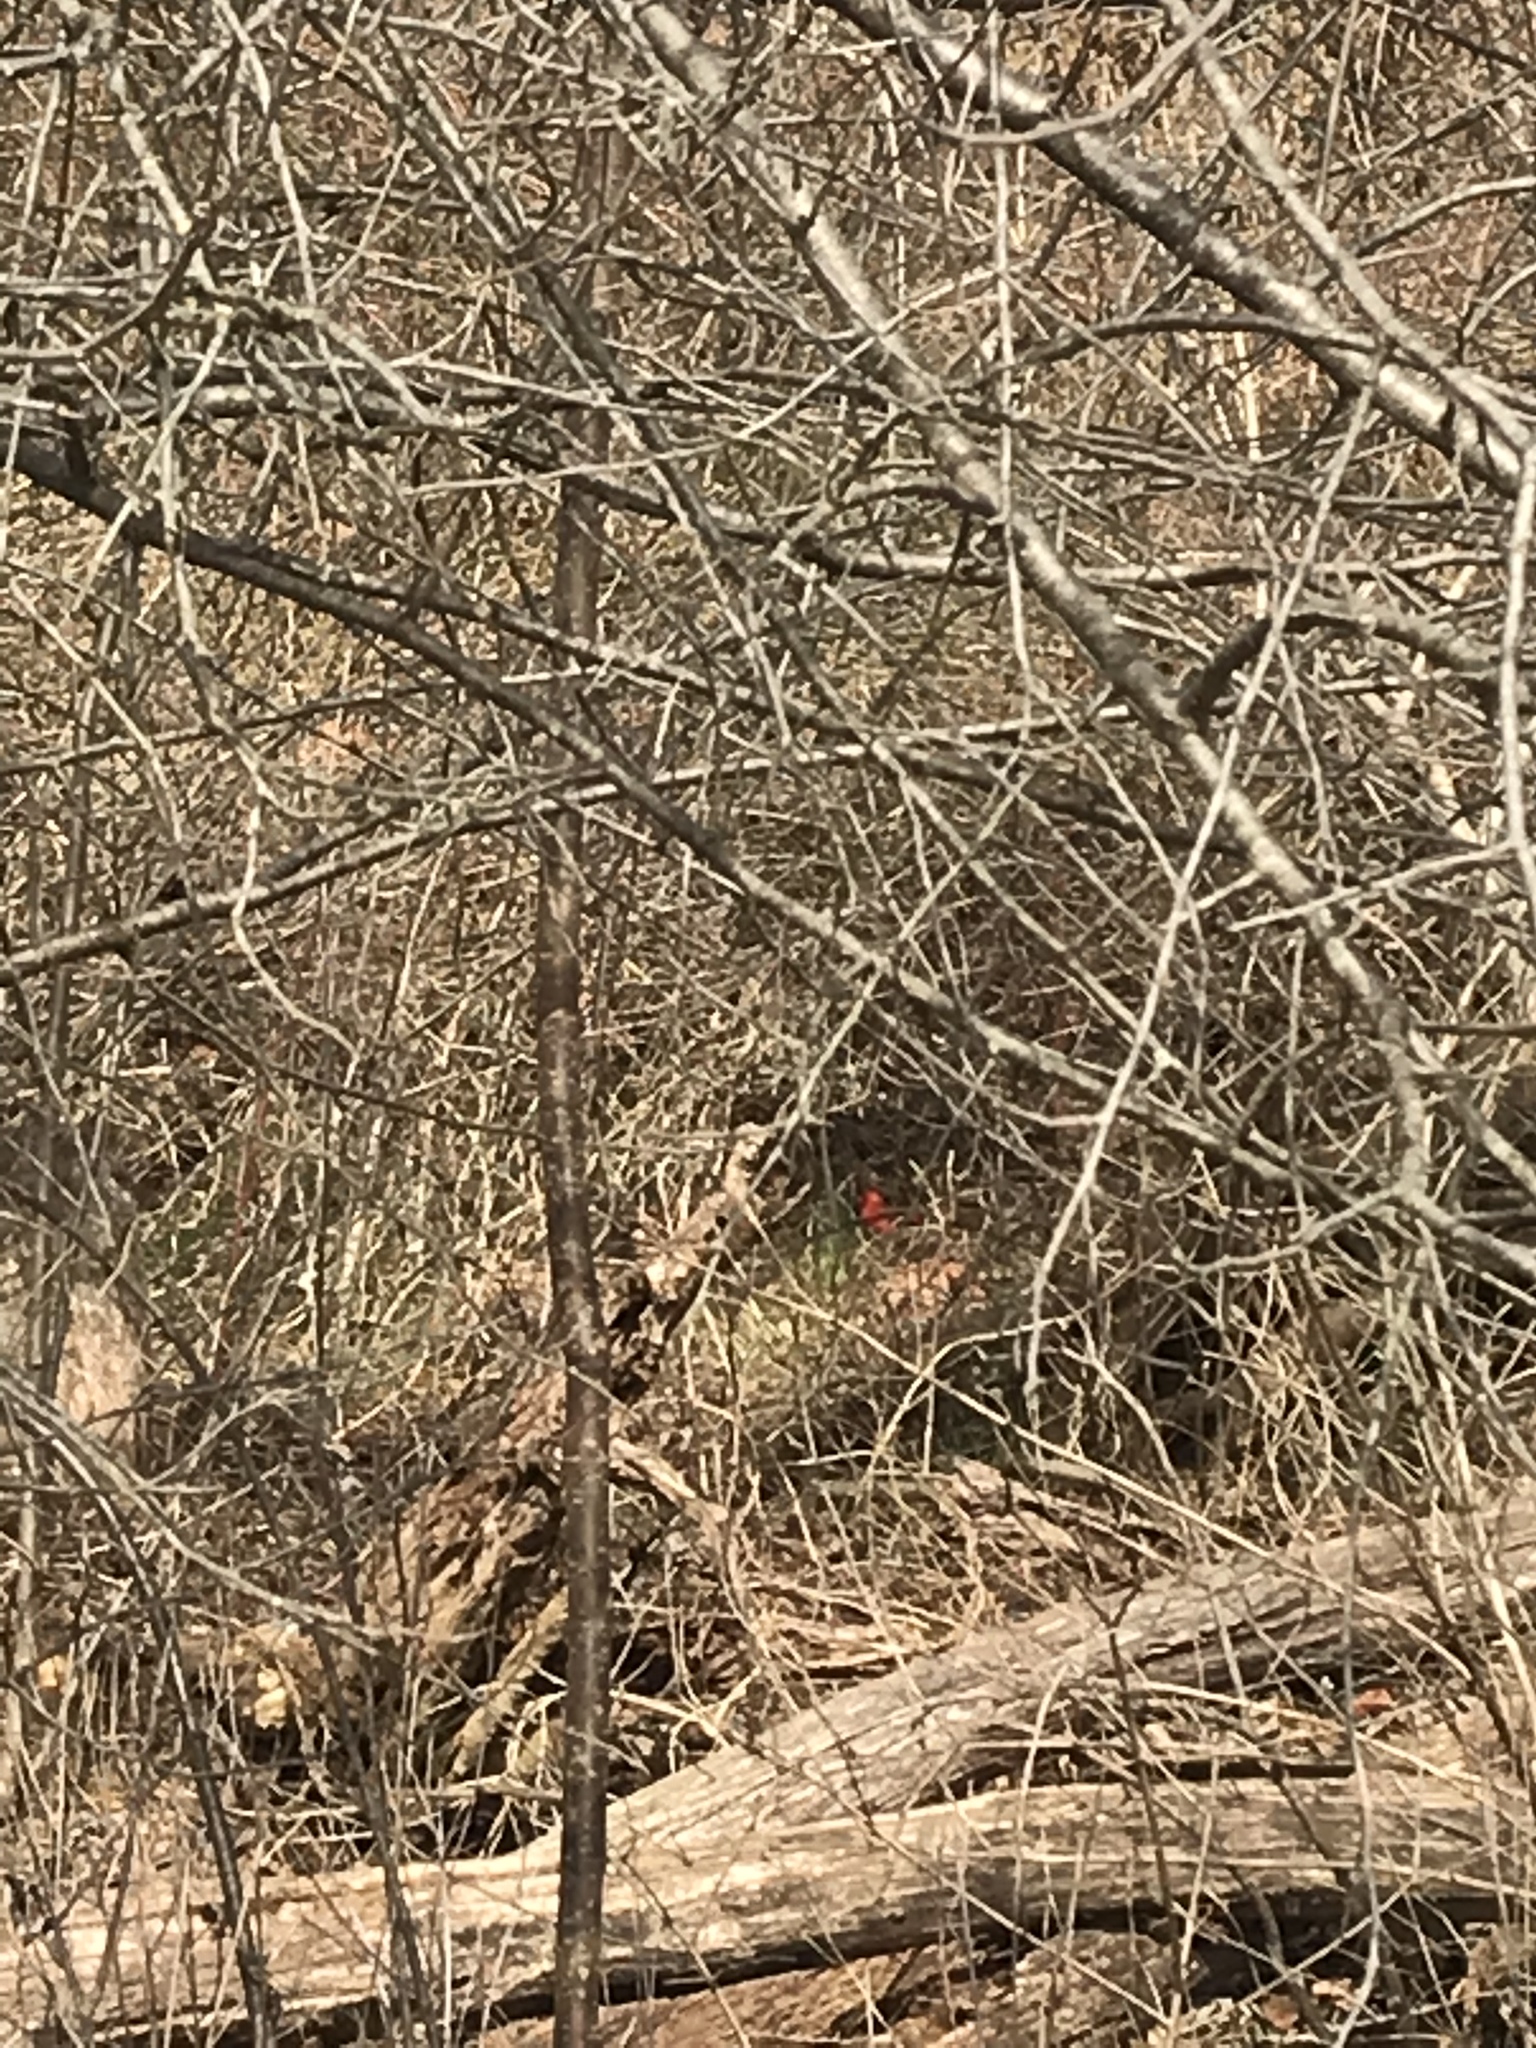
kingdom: Animalia
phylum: Chordata
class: Aves
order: Passeriformes
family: Cardinalidae
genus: Cardinalis
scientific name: Cardinalis cardinalis
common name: Northern cardinal
